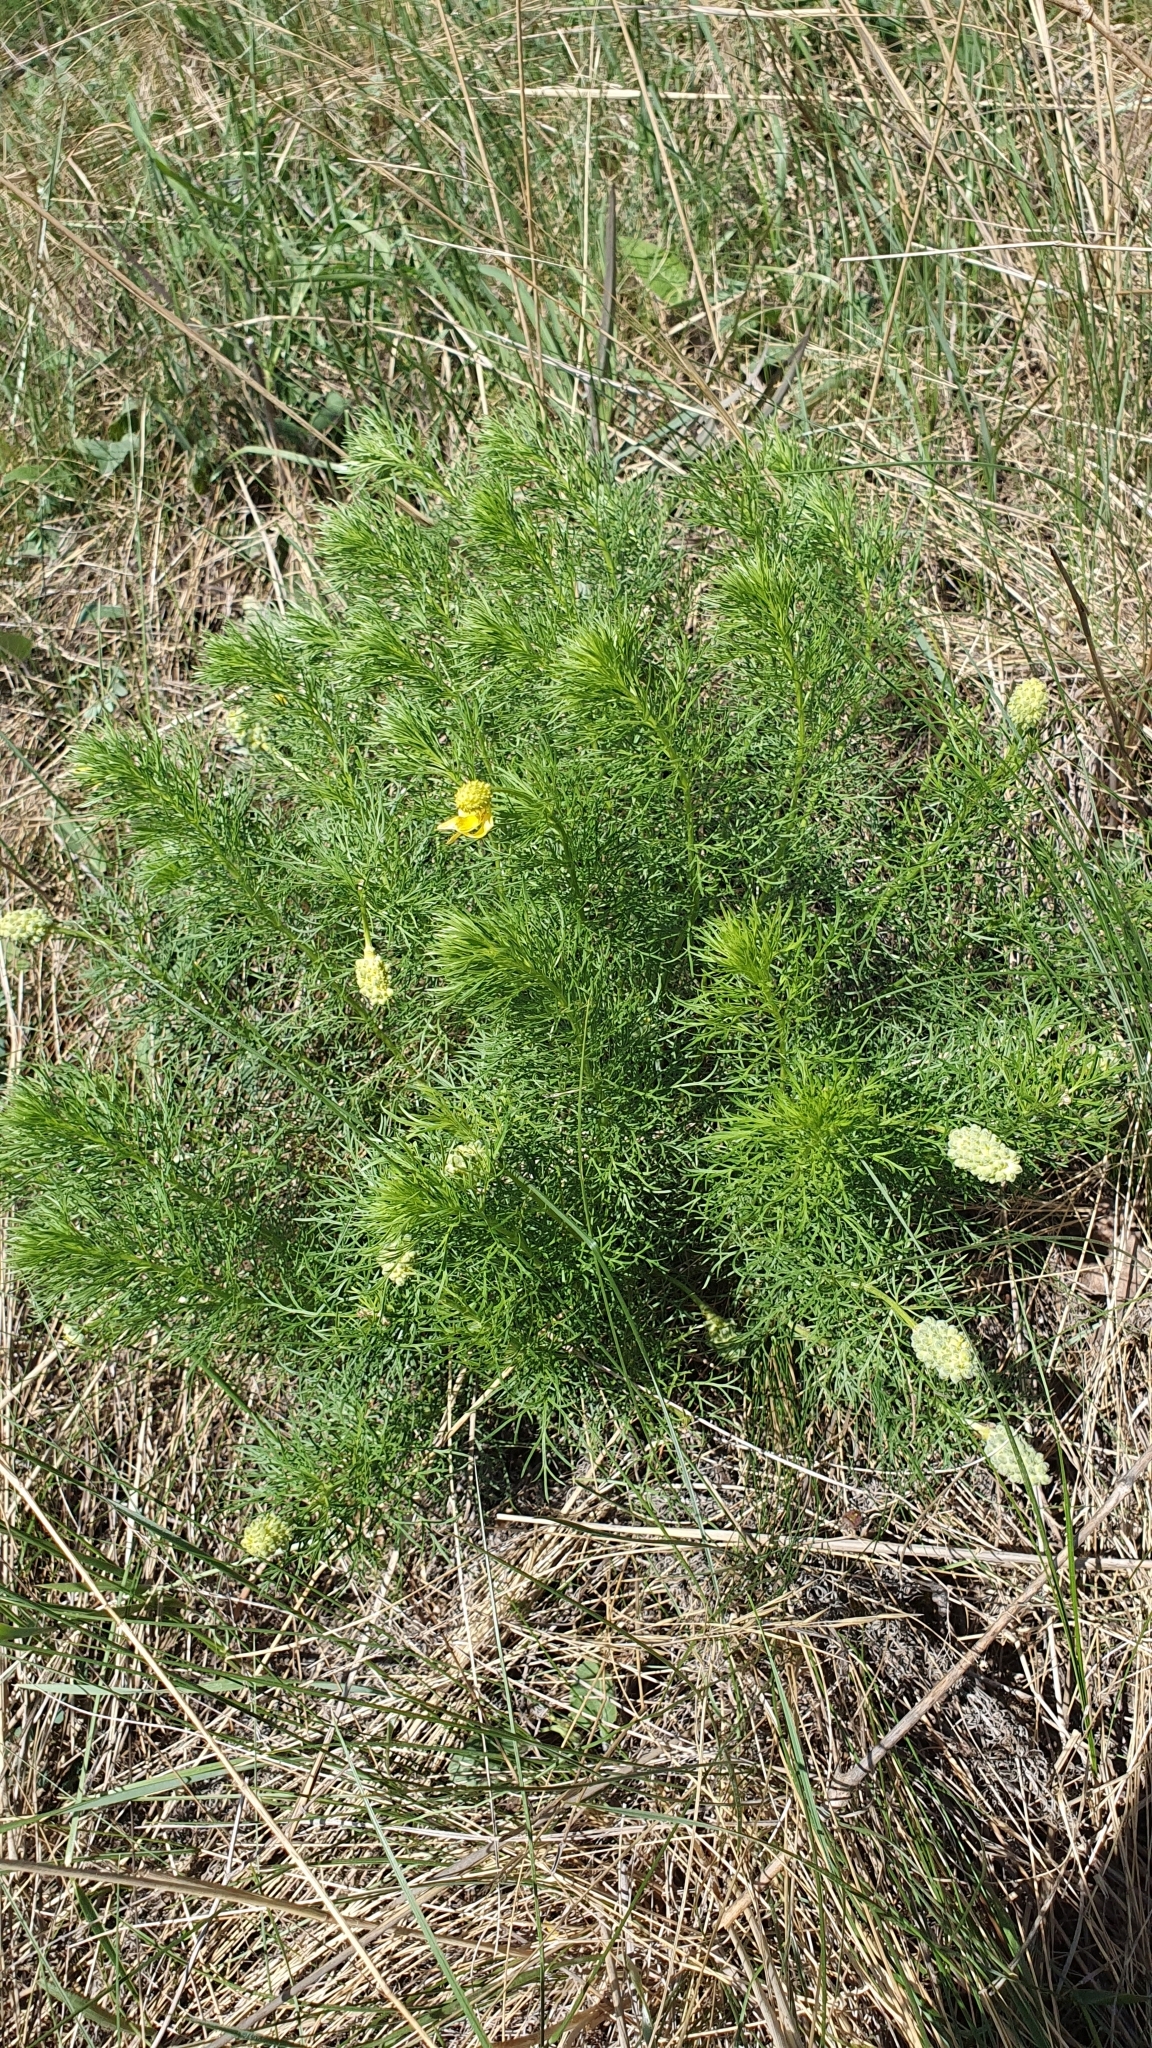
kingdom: Plantae
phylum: Tracheophyta
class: Magnoliopsida
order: Ranunculales
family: Ranunculaceae
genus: Adonis
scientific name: Adonis vernalis
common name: Yellow pheasants-eye
